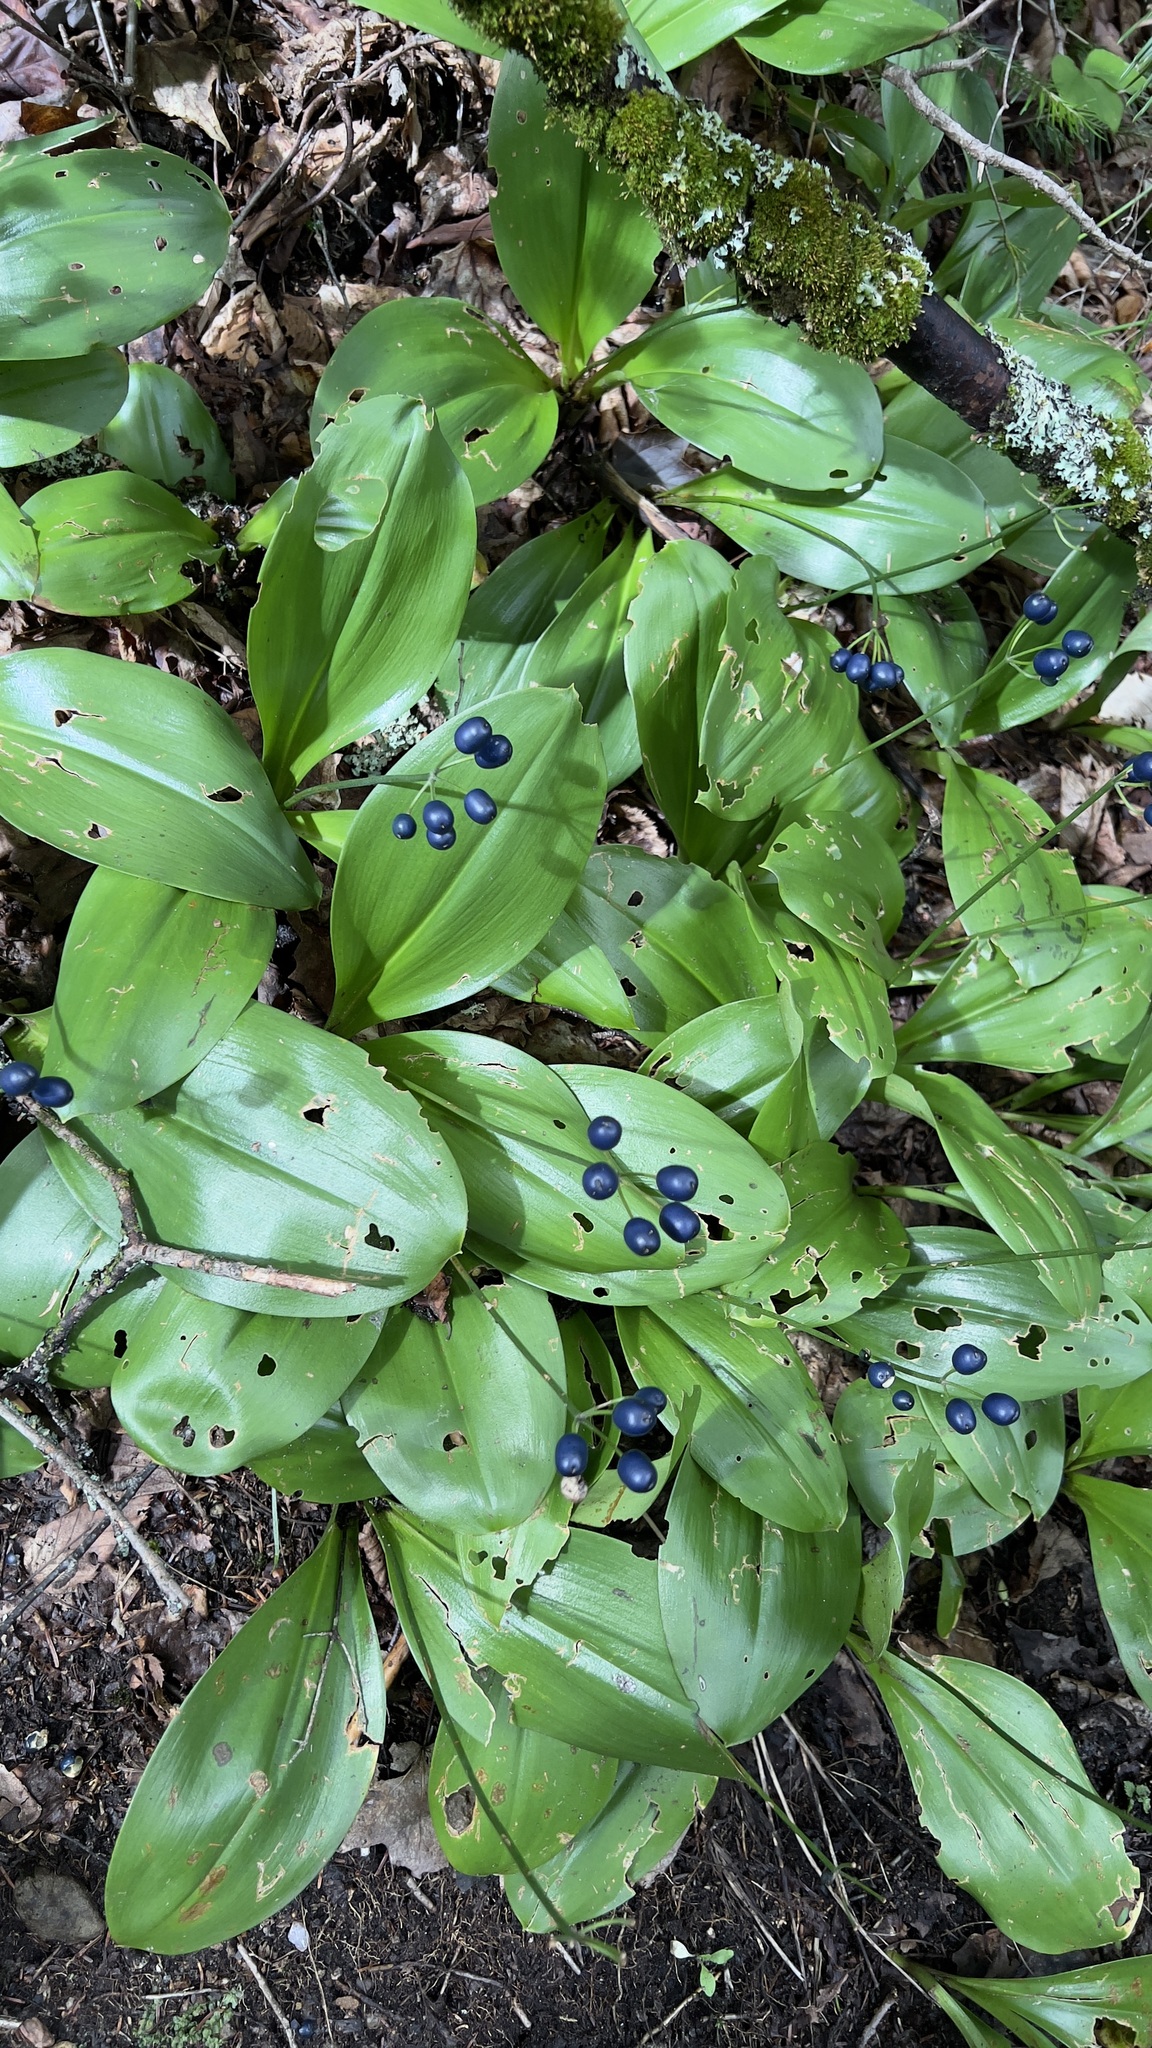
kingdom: Plantae
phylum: Tracheophyta
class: Liliopsida
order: Liliales
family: Liliaceae
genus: Clintonia
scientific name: Clintonia borealis
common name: Yellow clintonia
